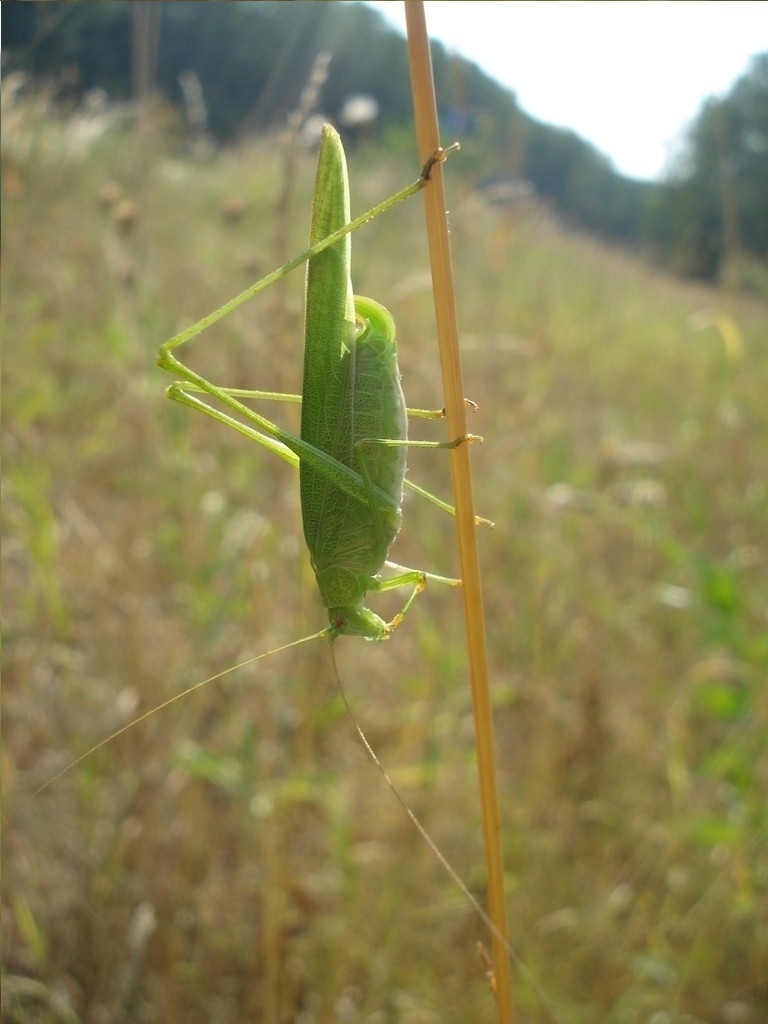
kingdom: Animalia
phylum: Arthropoda
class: Insecta
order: Orthoptera
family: Tettigoniidae
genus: Phaneroptera
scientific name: Phaneroptera falcata
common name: Sickle-bearing bush-cricket
